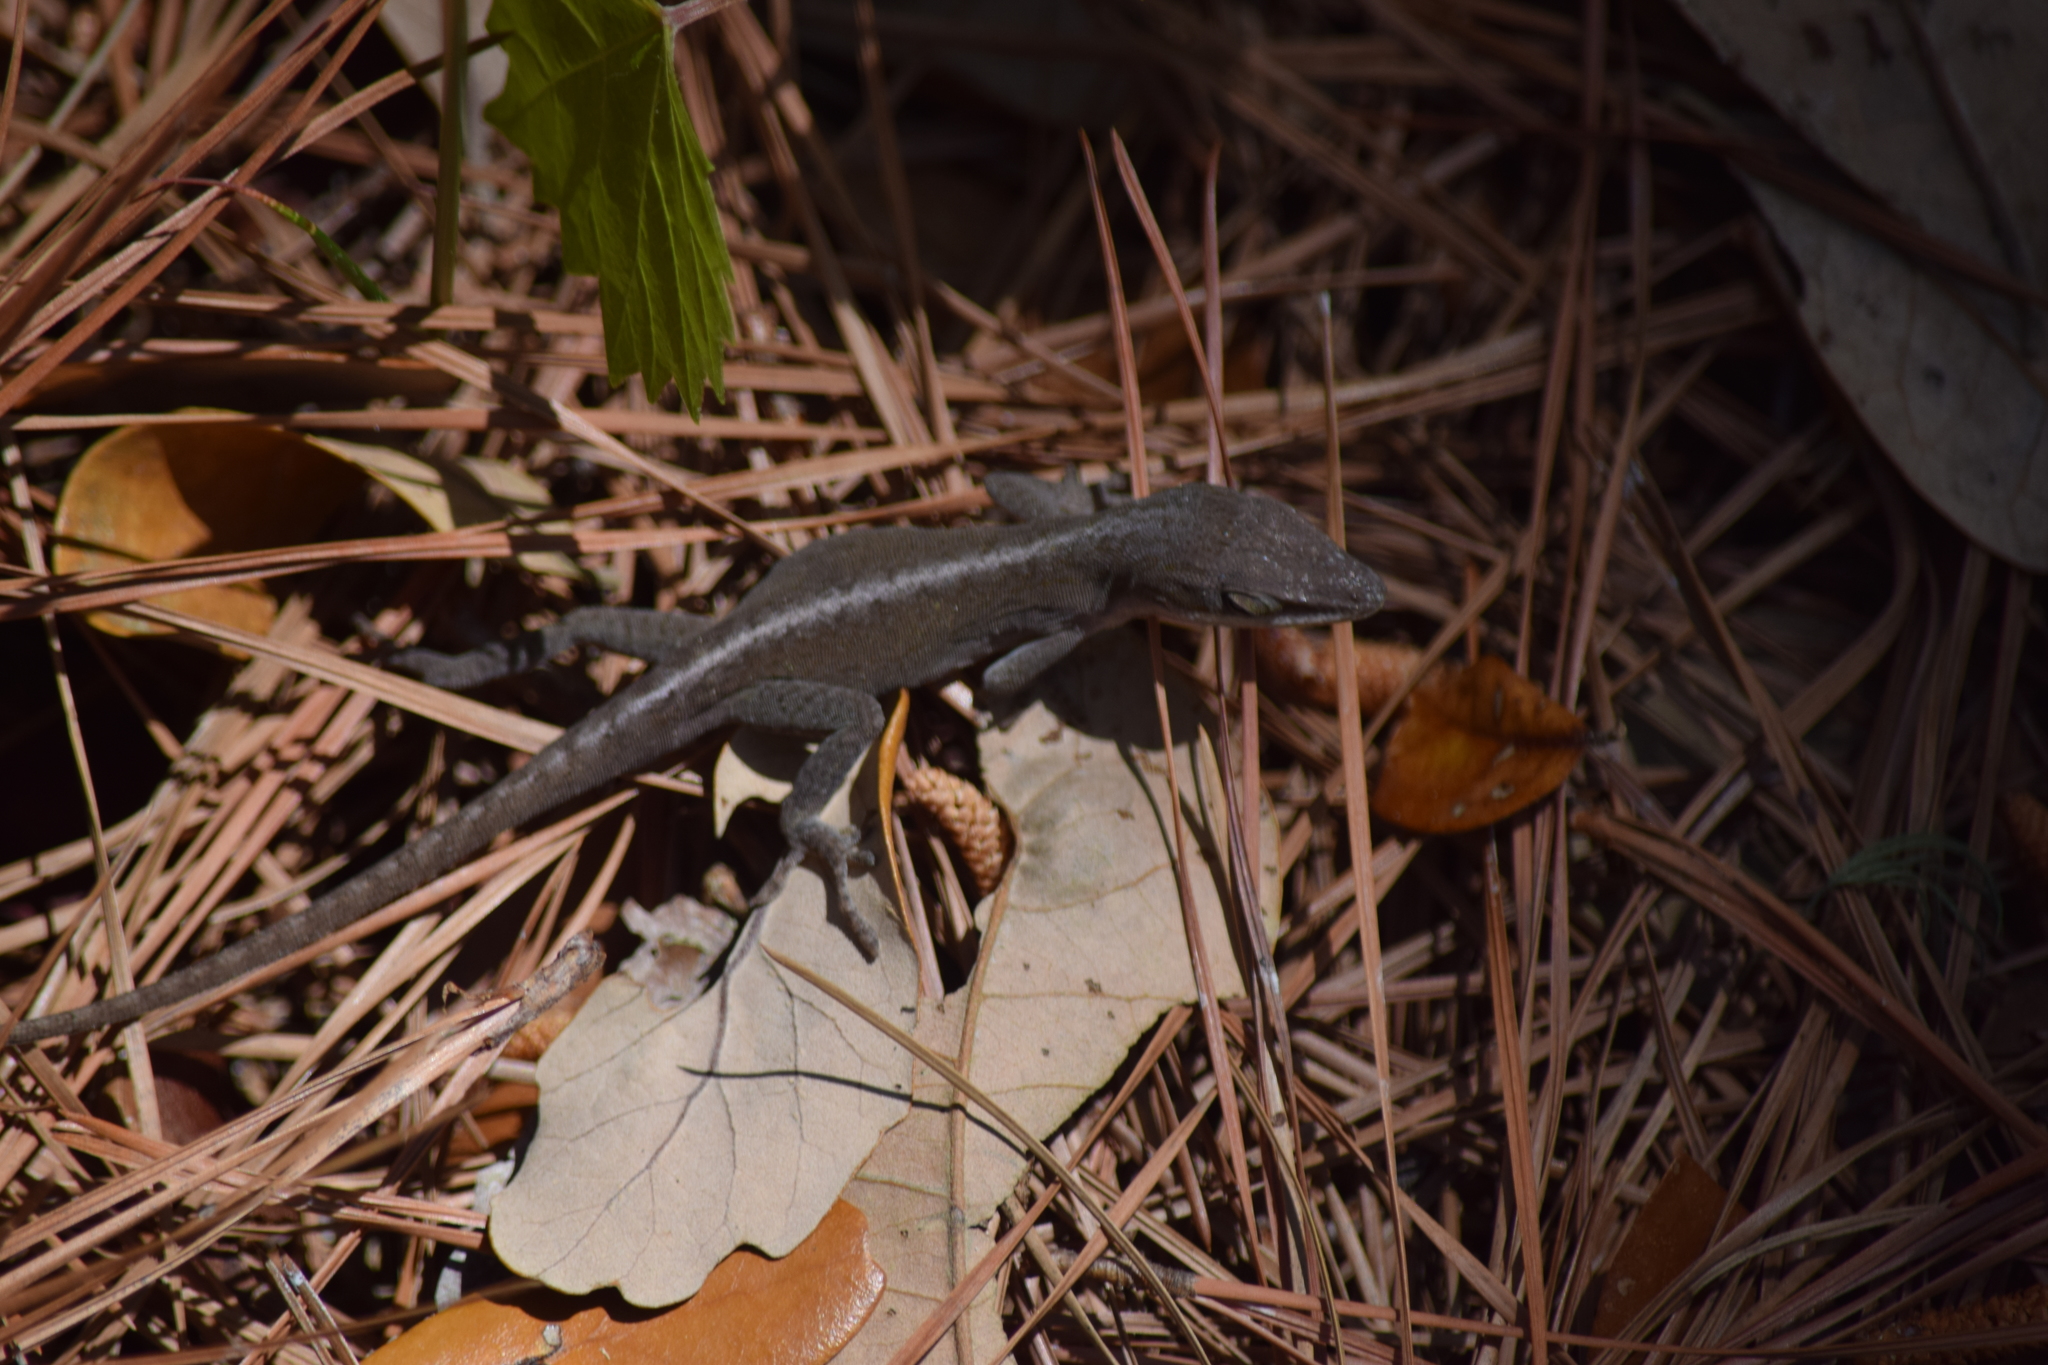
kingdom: Animalia
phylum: Chordata
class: Squamata
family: Dactyloidae
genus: Anolis
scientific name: Anolis carolinensis
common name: Green anole
